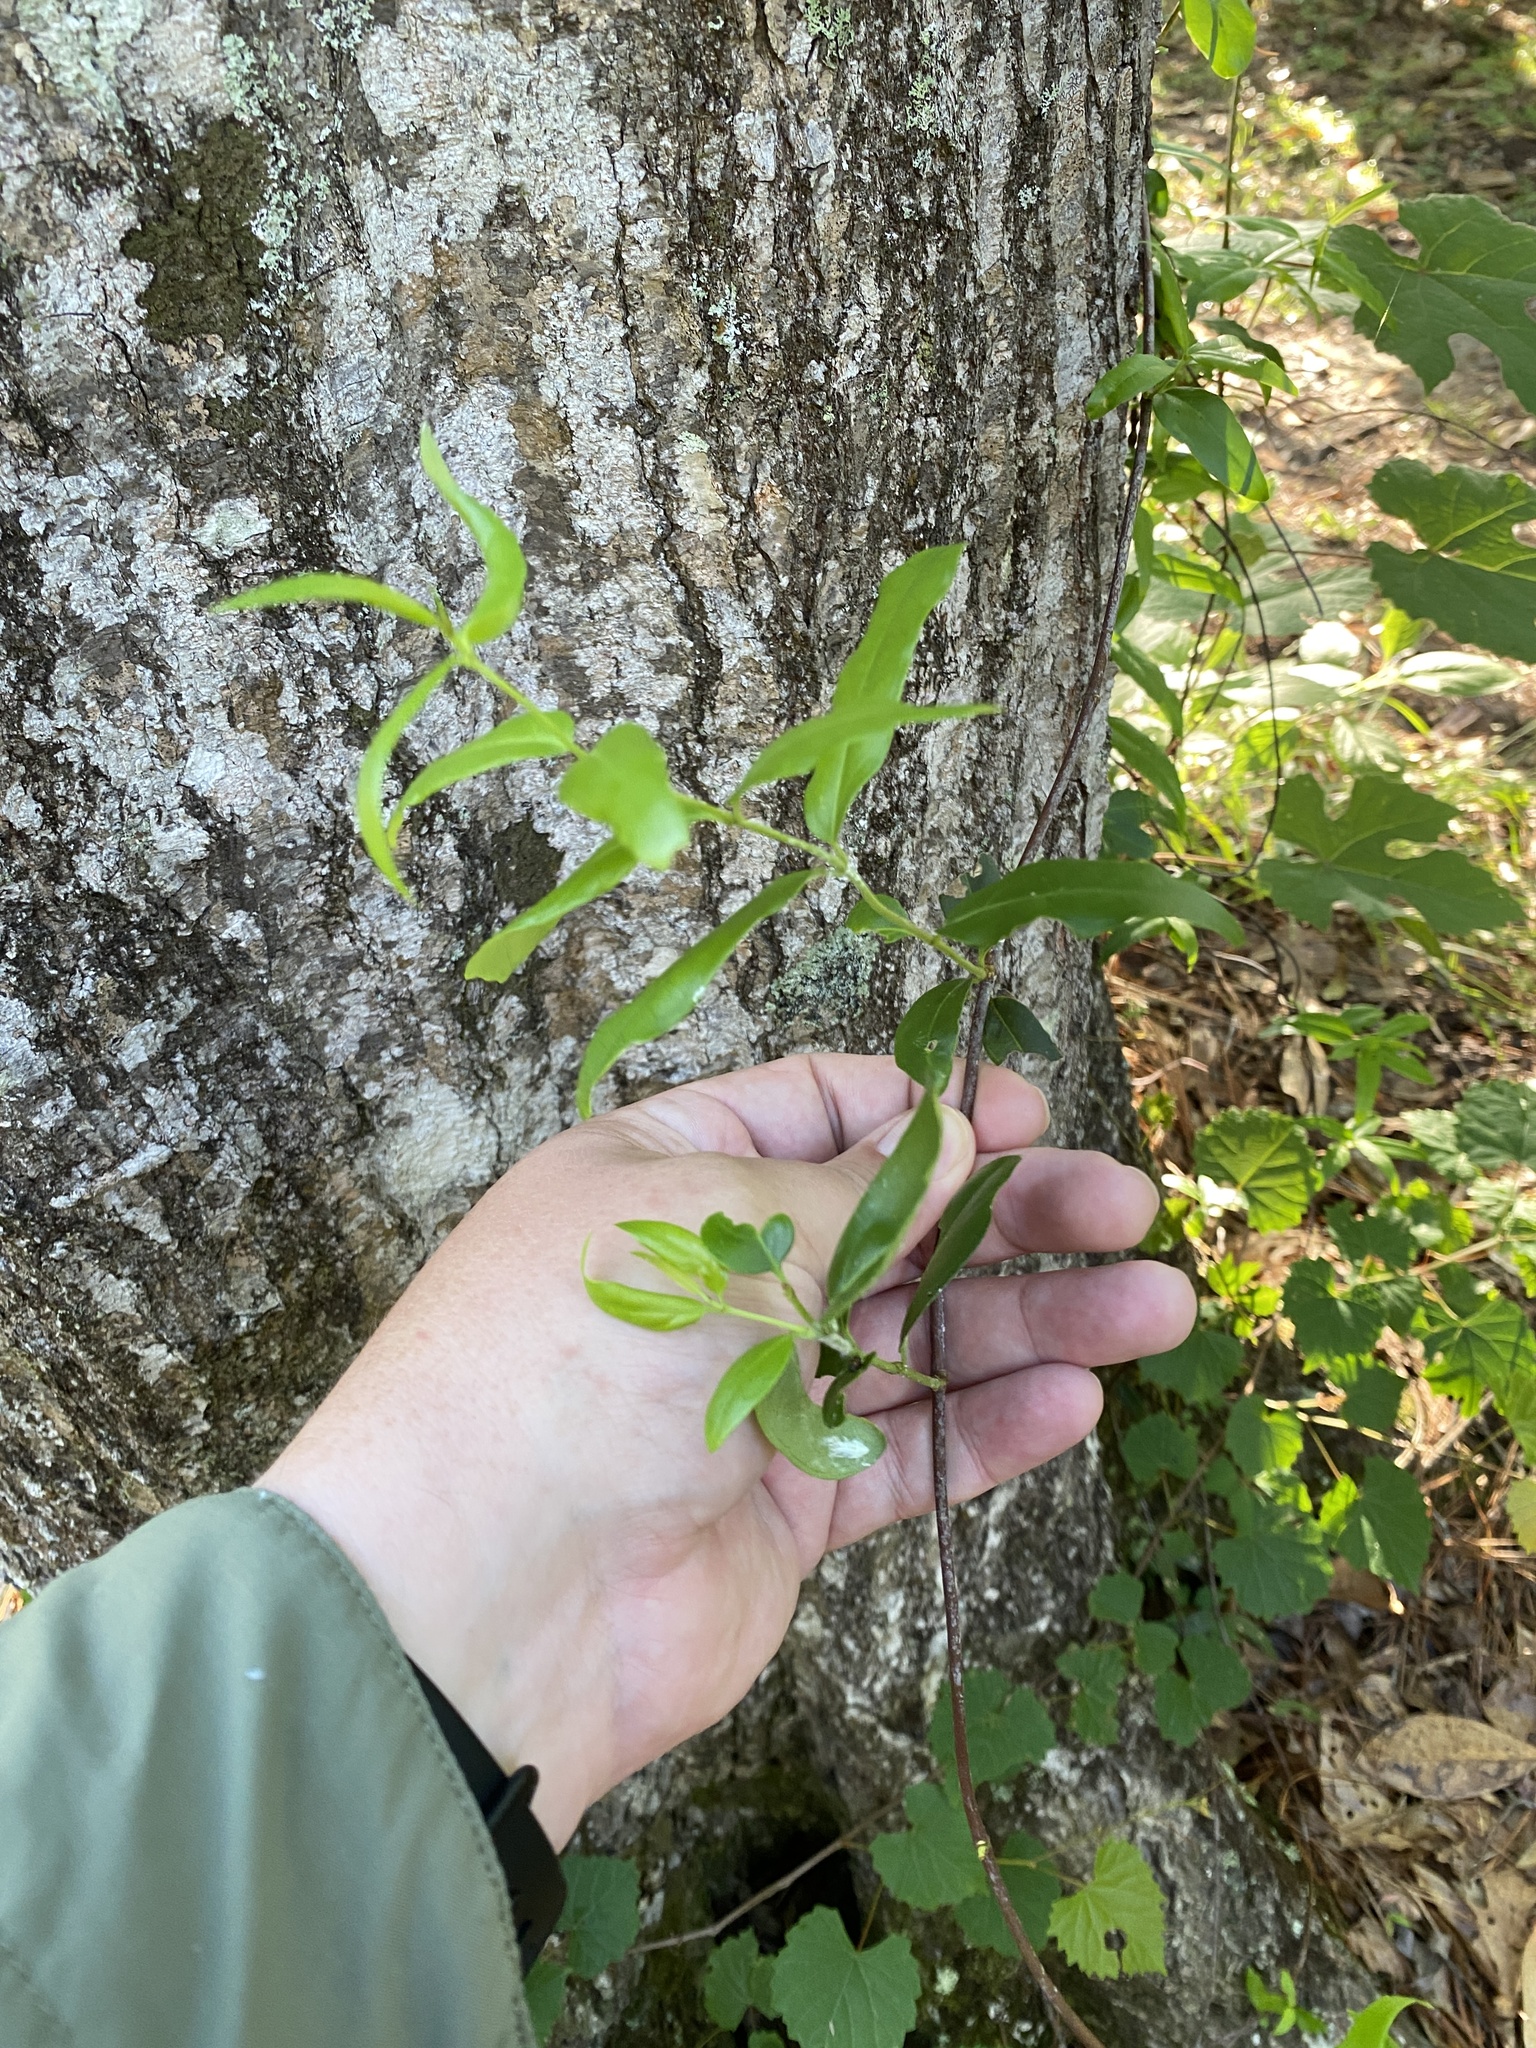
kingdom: Plantae
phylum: Tracheophyta
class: Magnoliopsida
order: Gentianales
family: Gelsemiaceae
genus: Gelsemium
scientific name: Gelsemium sempervirens
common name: Carolina-jasmine
